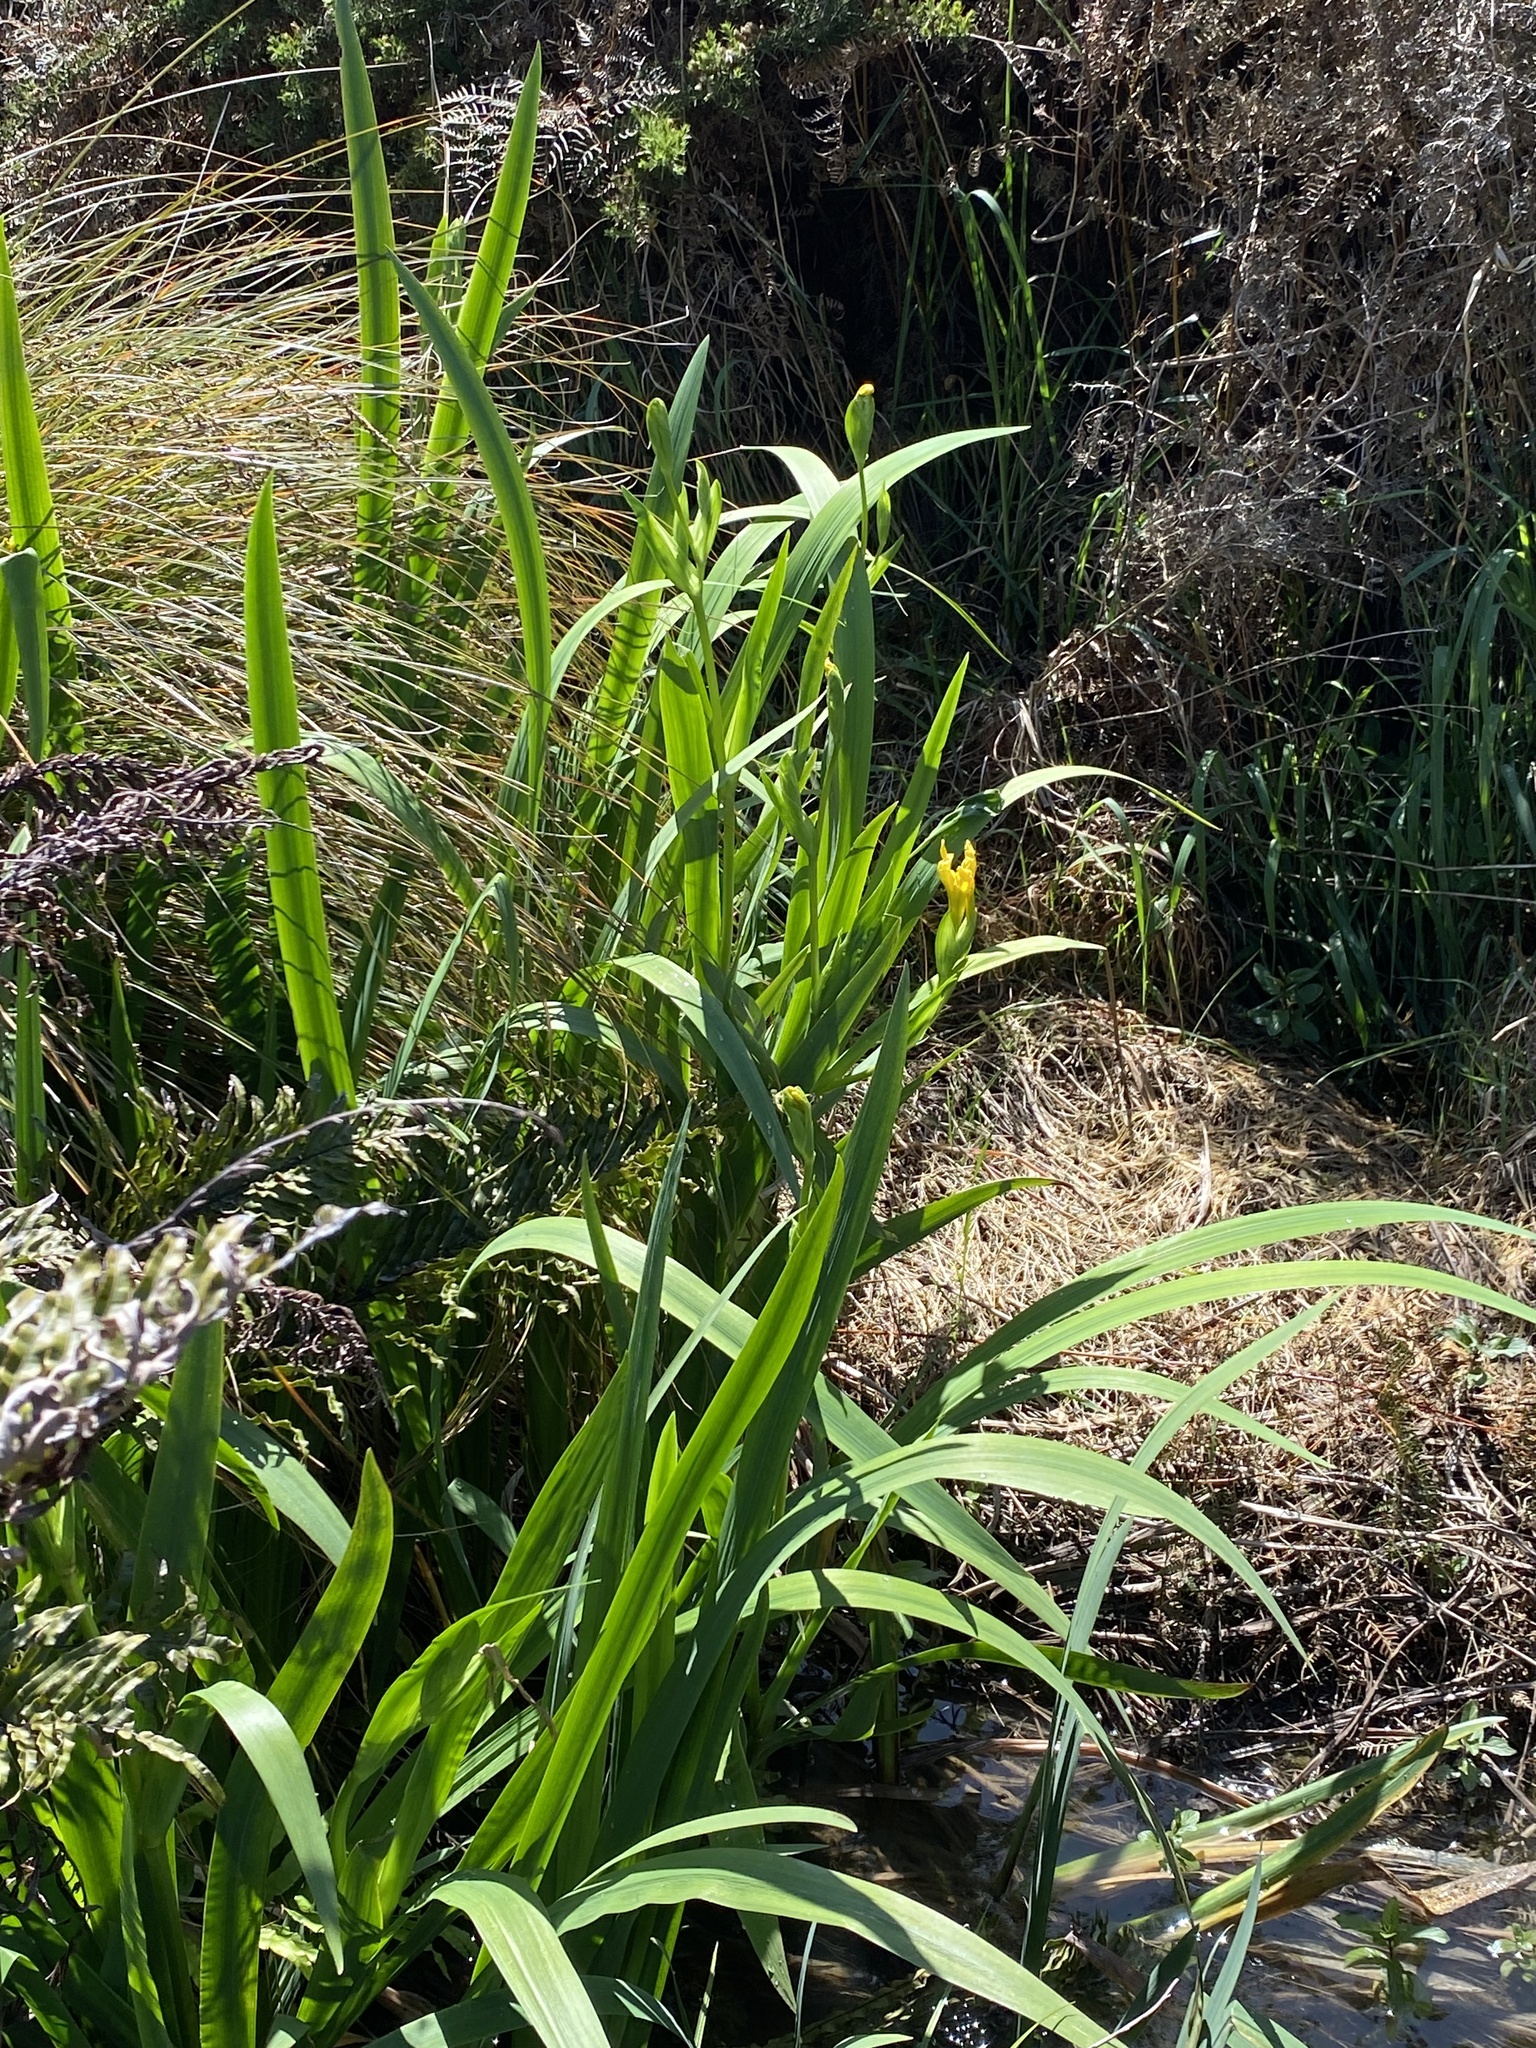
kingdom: Plantae
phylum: Tracheophyta
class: Liliopsida
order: Asparagales
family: Iridaceae
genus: Iris
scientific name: Iris pseudacorus
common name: Yellow flag
